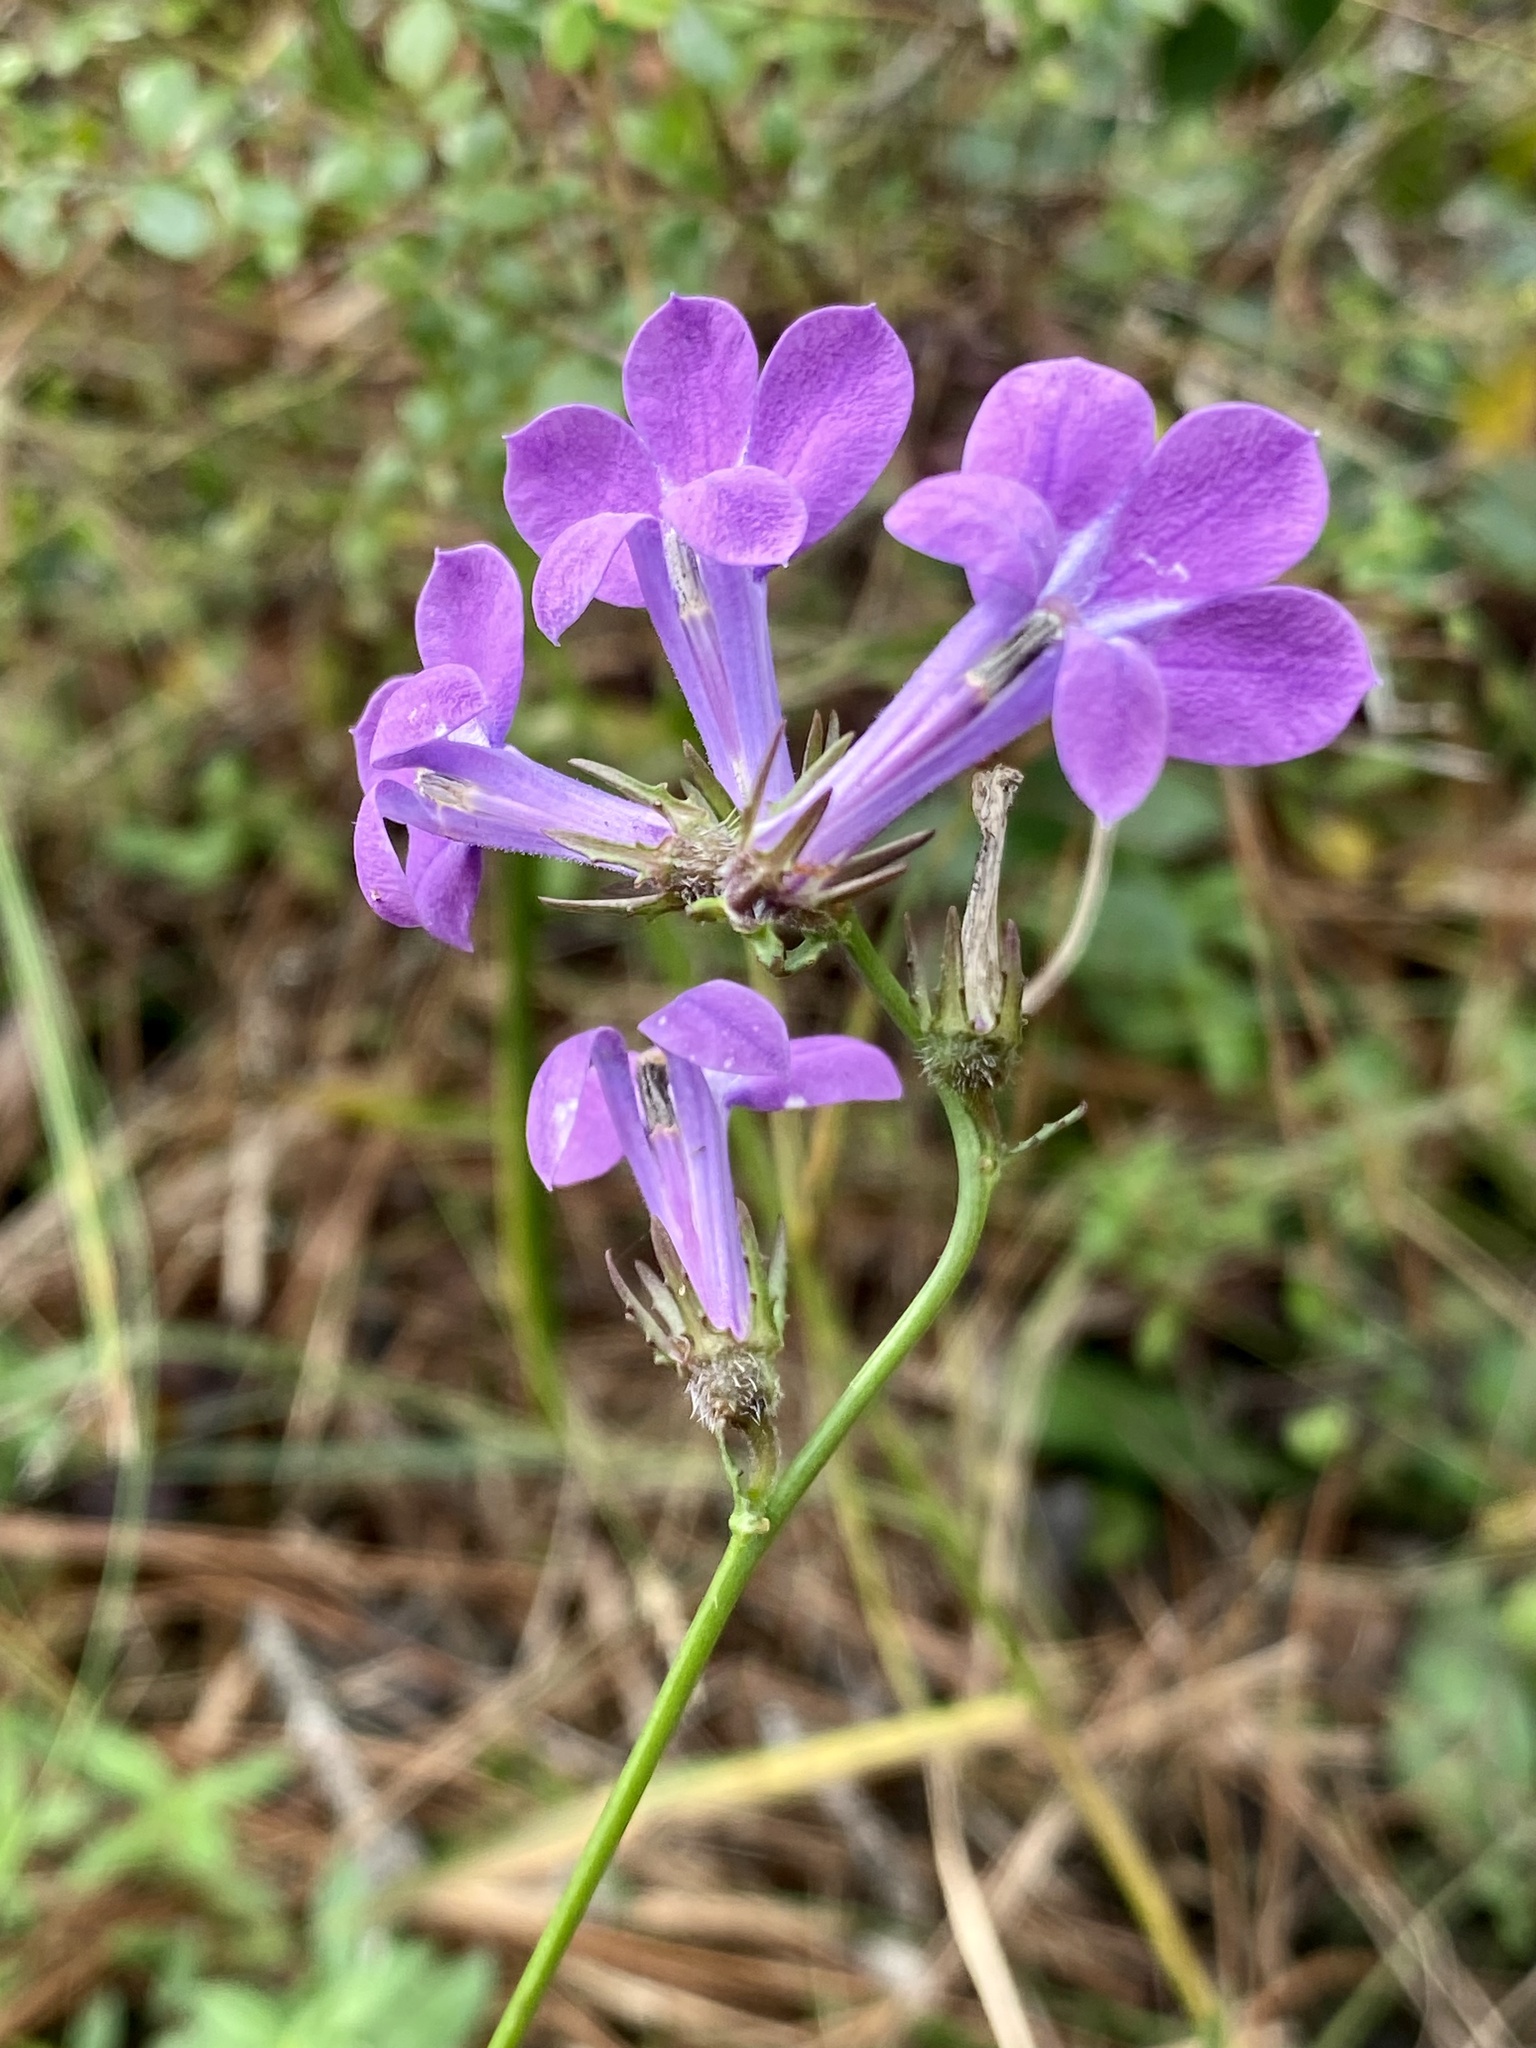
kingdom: Plantae
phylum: Tracheophyta
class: Magnoliopsida
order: Asterales
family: Campanulaceae
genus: Lobelia
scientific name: Lobelia glandulosa
